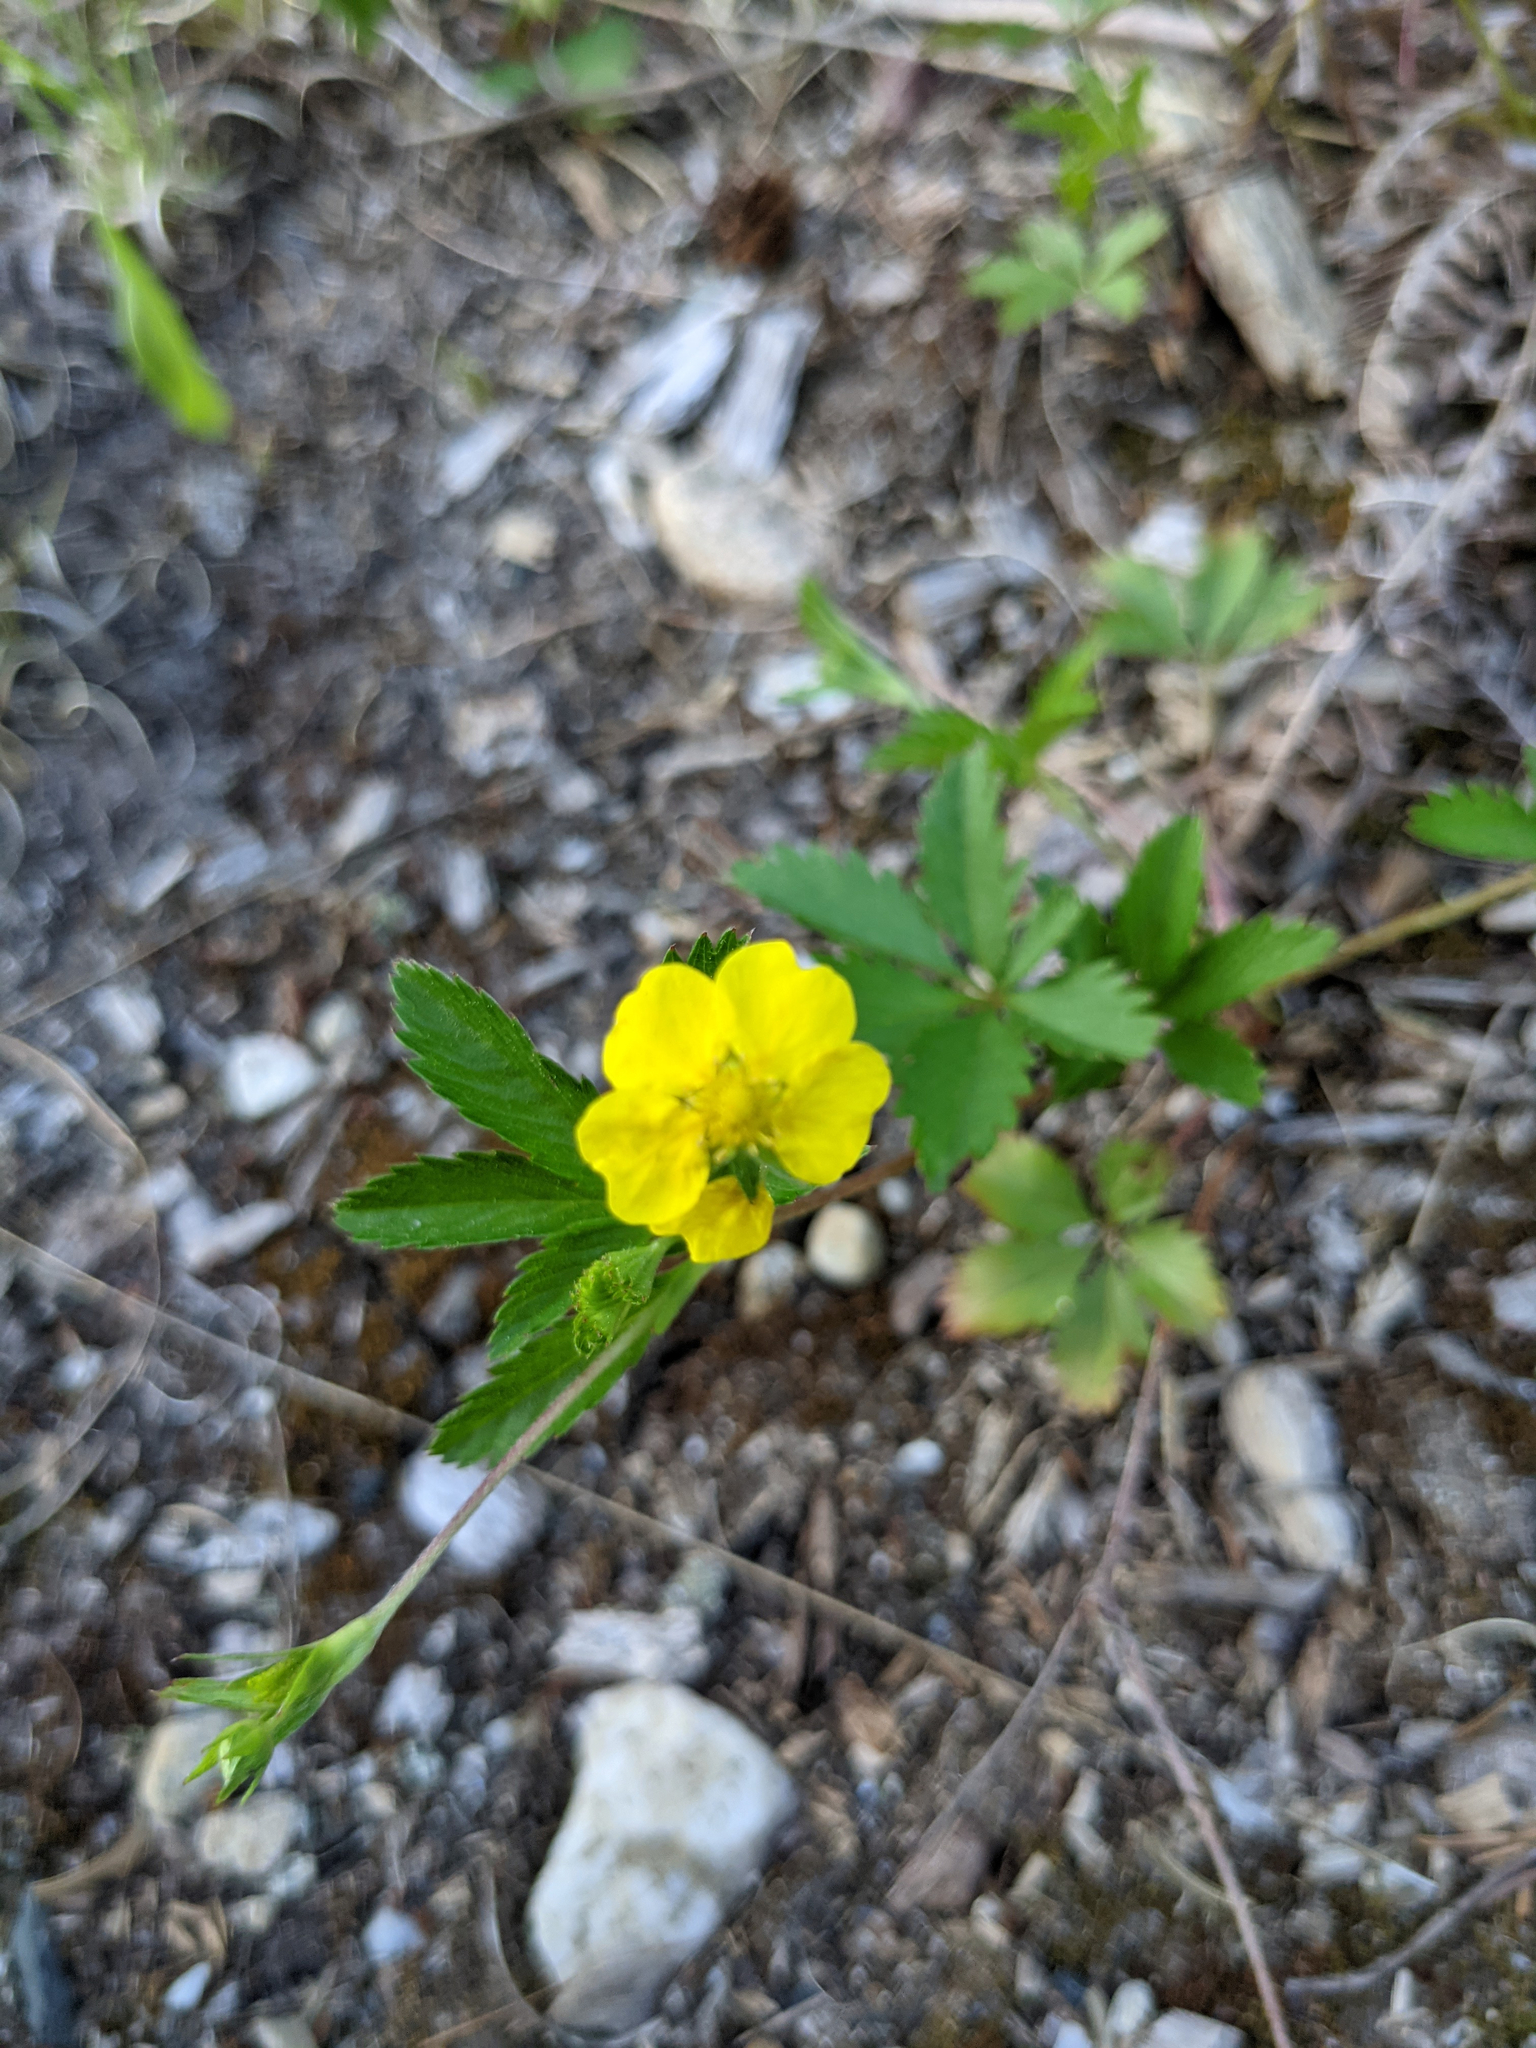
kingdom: Plantae
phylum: Tracheophyta
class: Magnoliopsida
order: Rosales
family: Rosaceae
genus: Potentilla
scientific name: Potentilla simplex
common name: Old field cinquefoil
